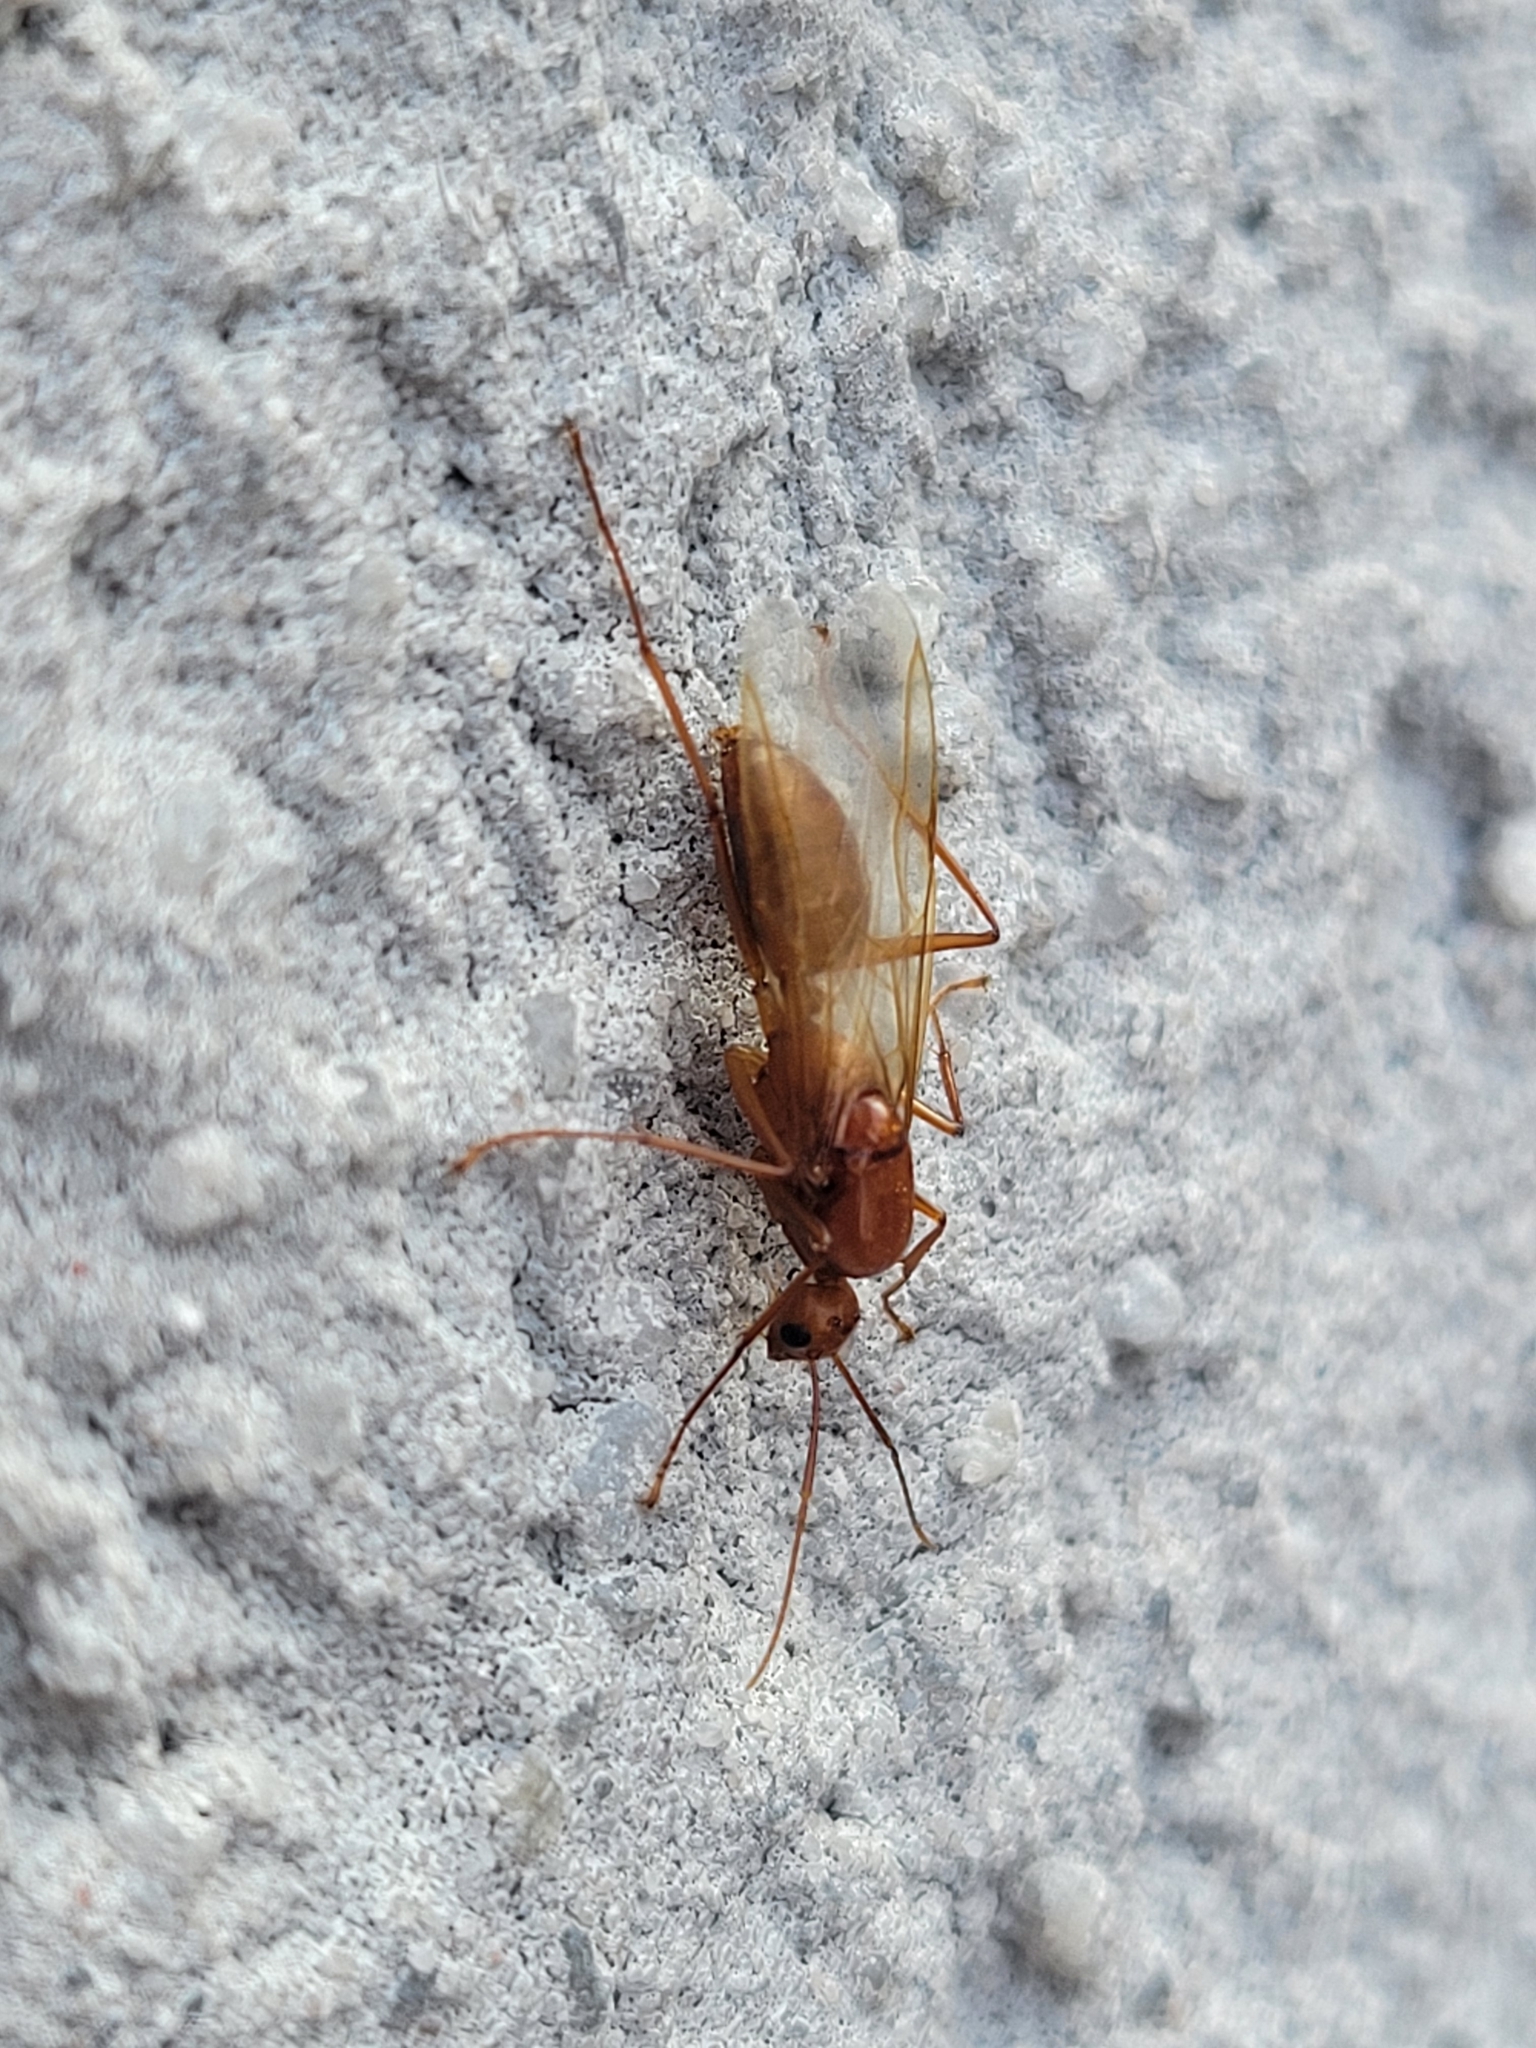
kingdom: Animalia
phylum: Arthropoda
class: Insecta
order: Hymenoptera
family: Formicidae
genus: Camponotus
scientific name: Camponotus castaneus
